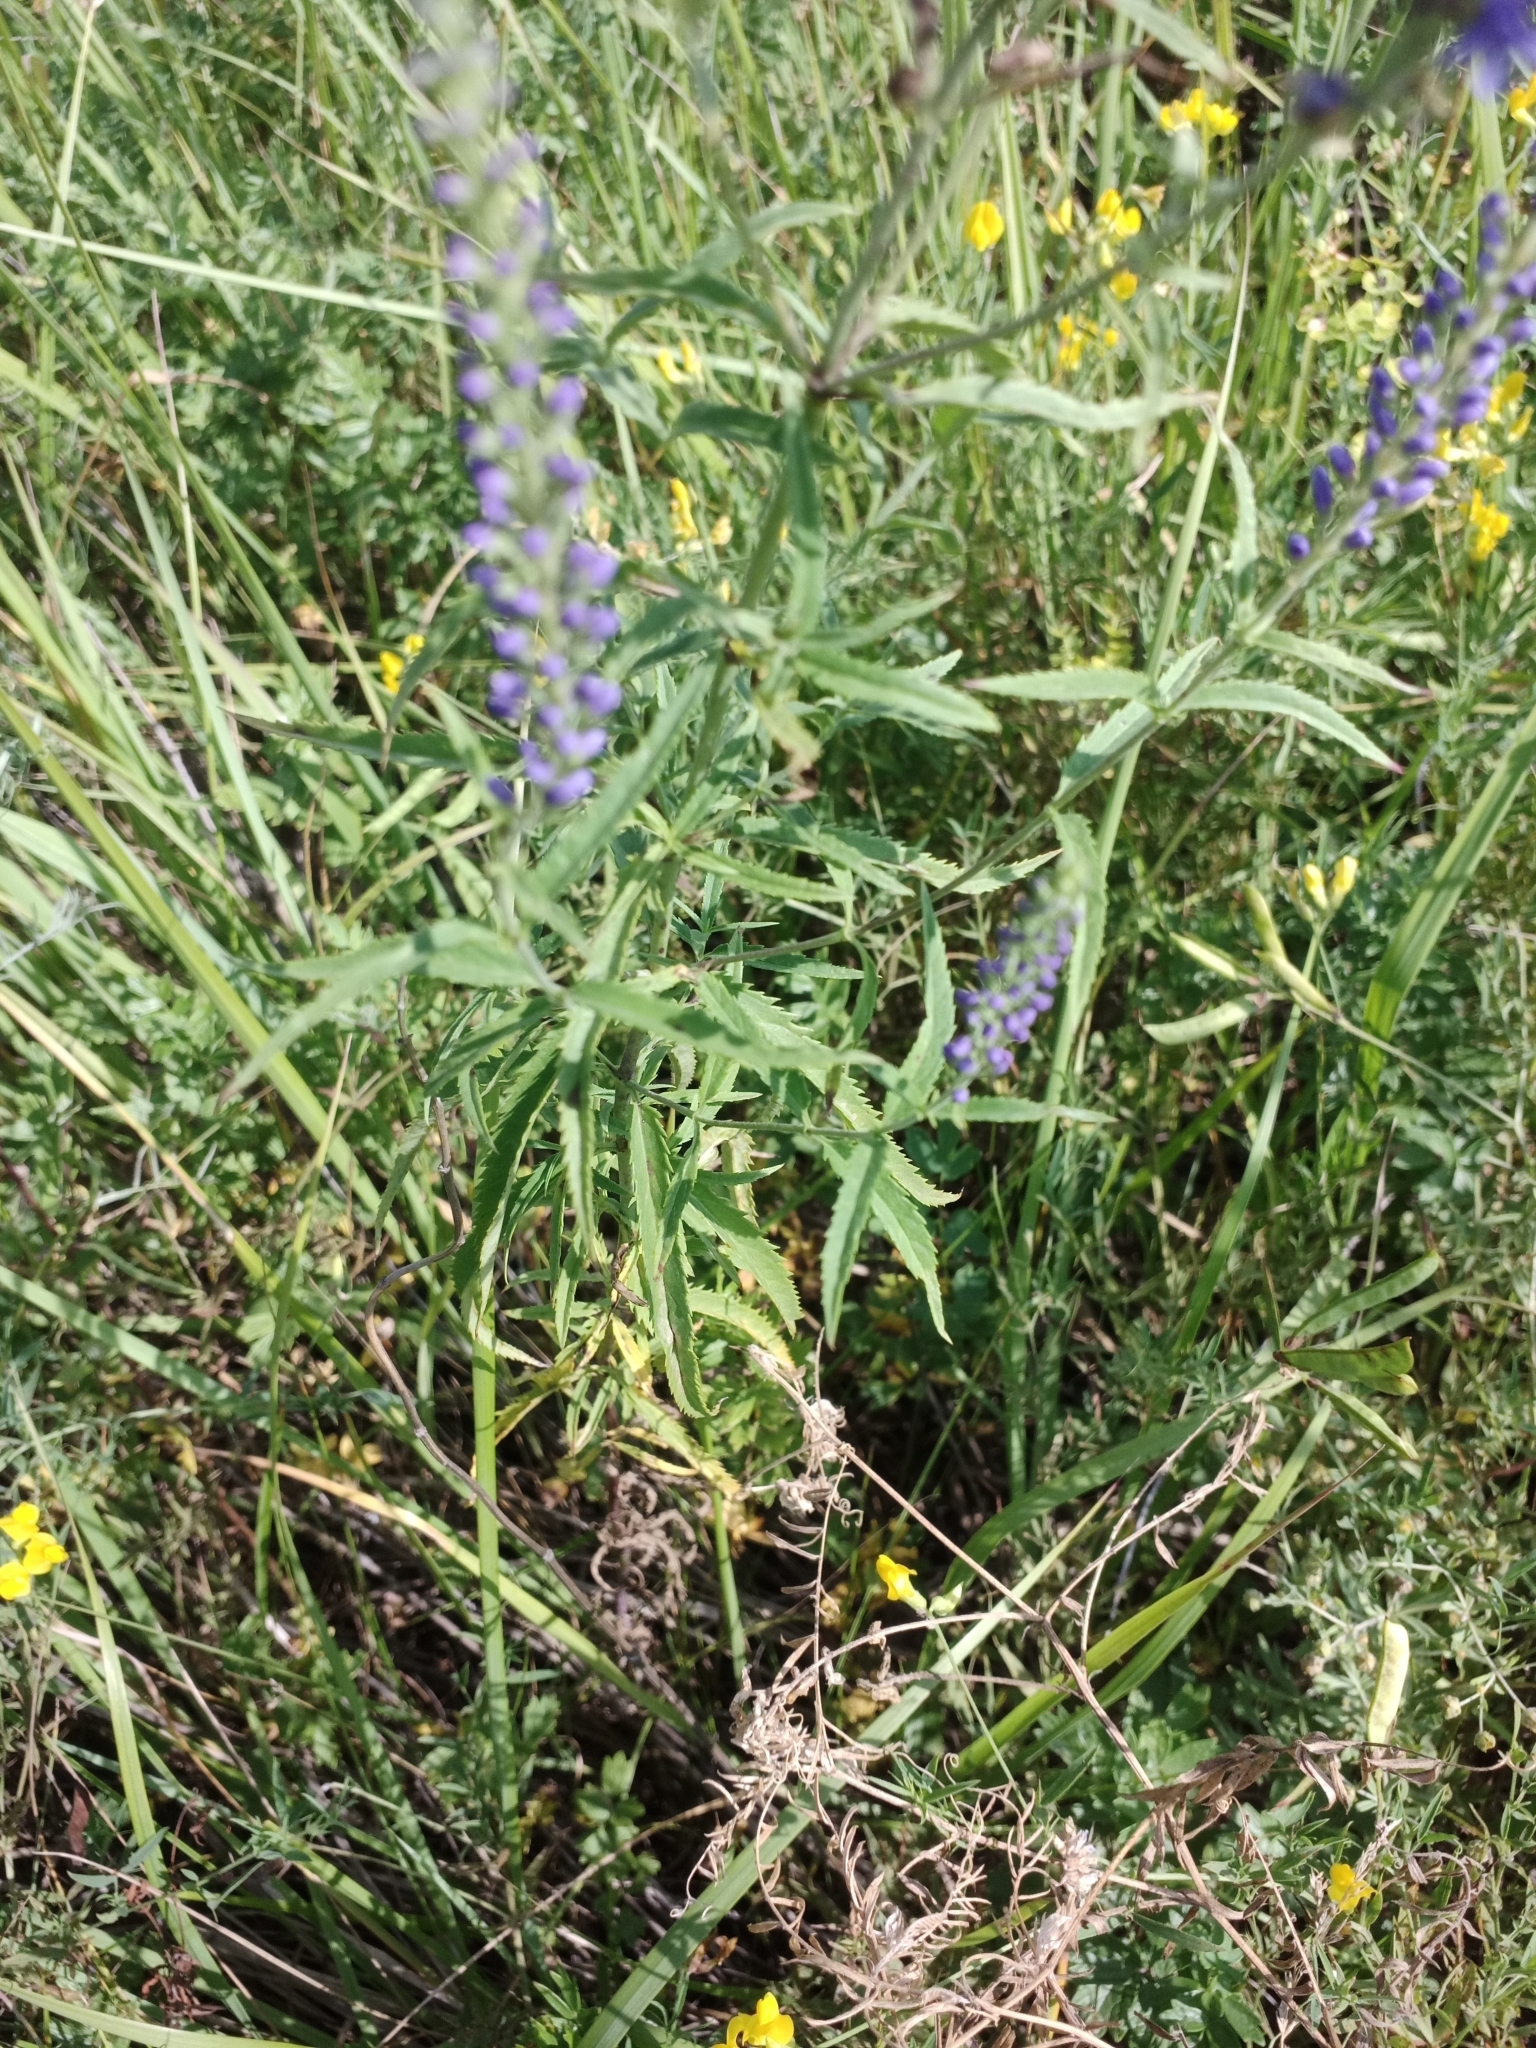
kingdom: Plantae
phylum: Tracheophyta
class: Magnoliopsida
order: Lamiales
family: Plantaginaceae
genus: Veronica
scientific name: Veronica longifolia
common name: Garden speedwell
